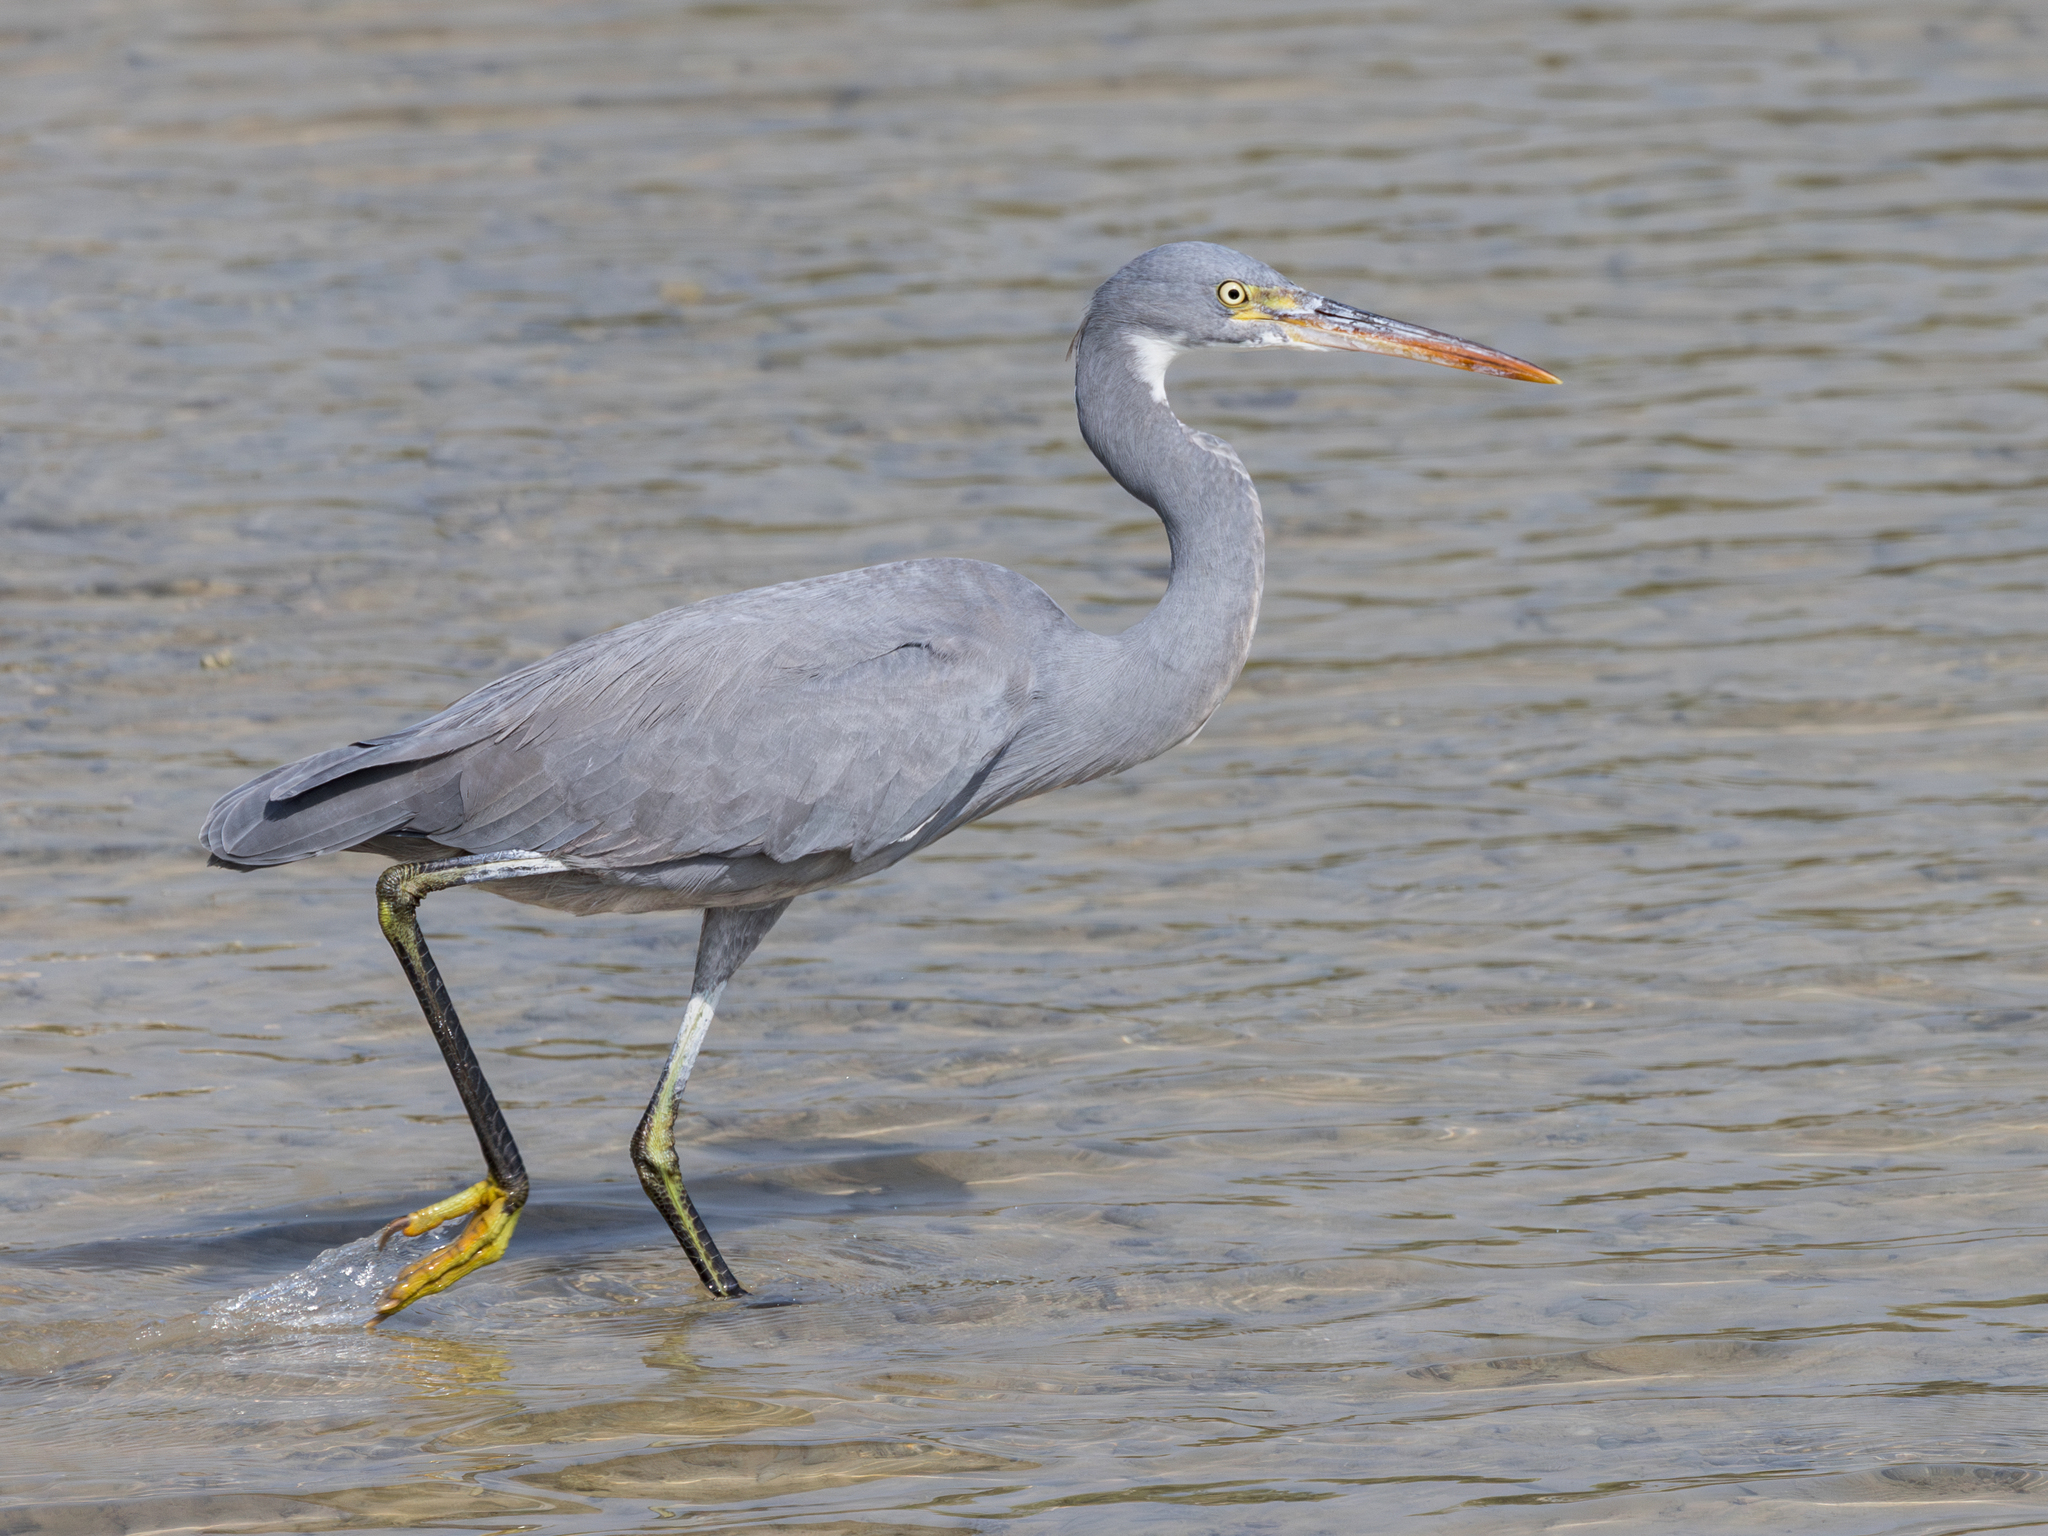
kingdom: Animalia
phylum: Chordata
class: Aves
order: Pelecaniformes
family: Ardeidae
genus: Egretta
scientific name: Egretta gularis
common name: Western reef-heron
